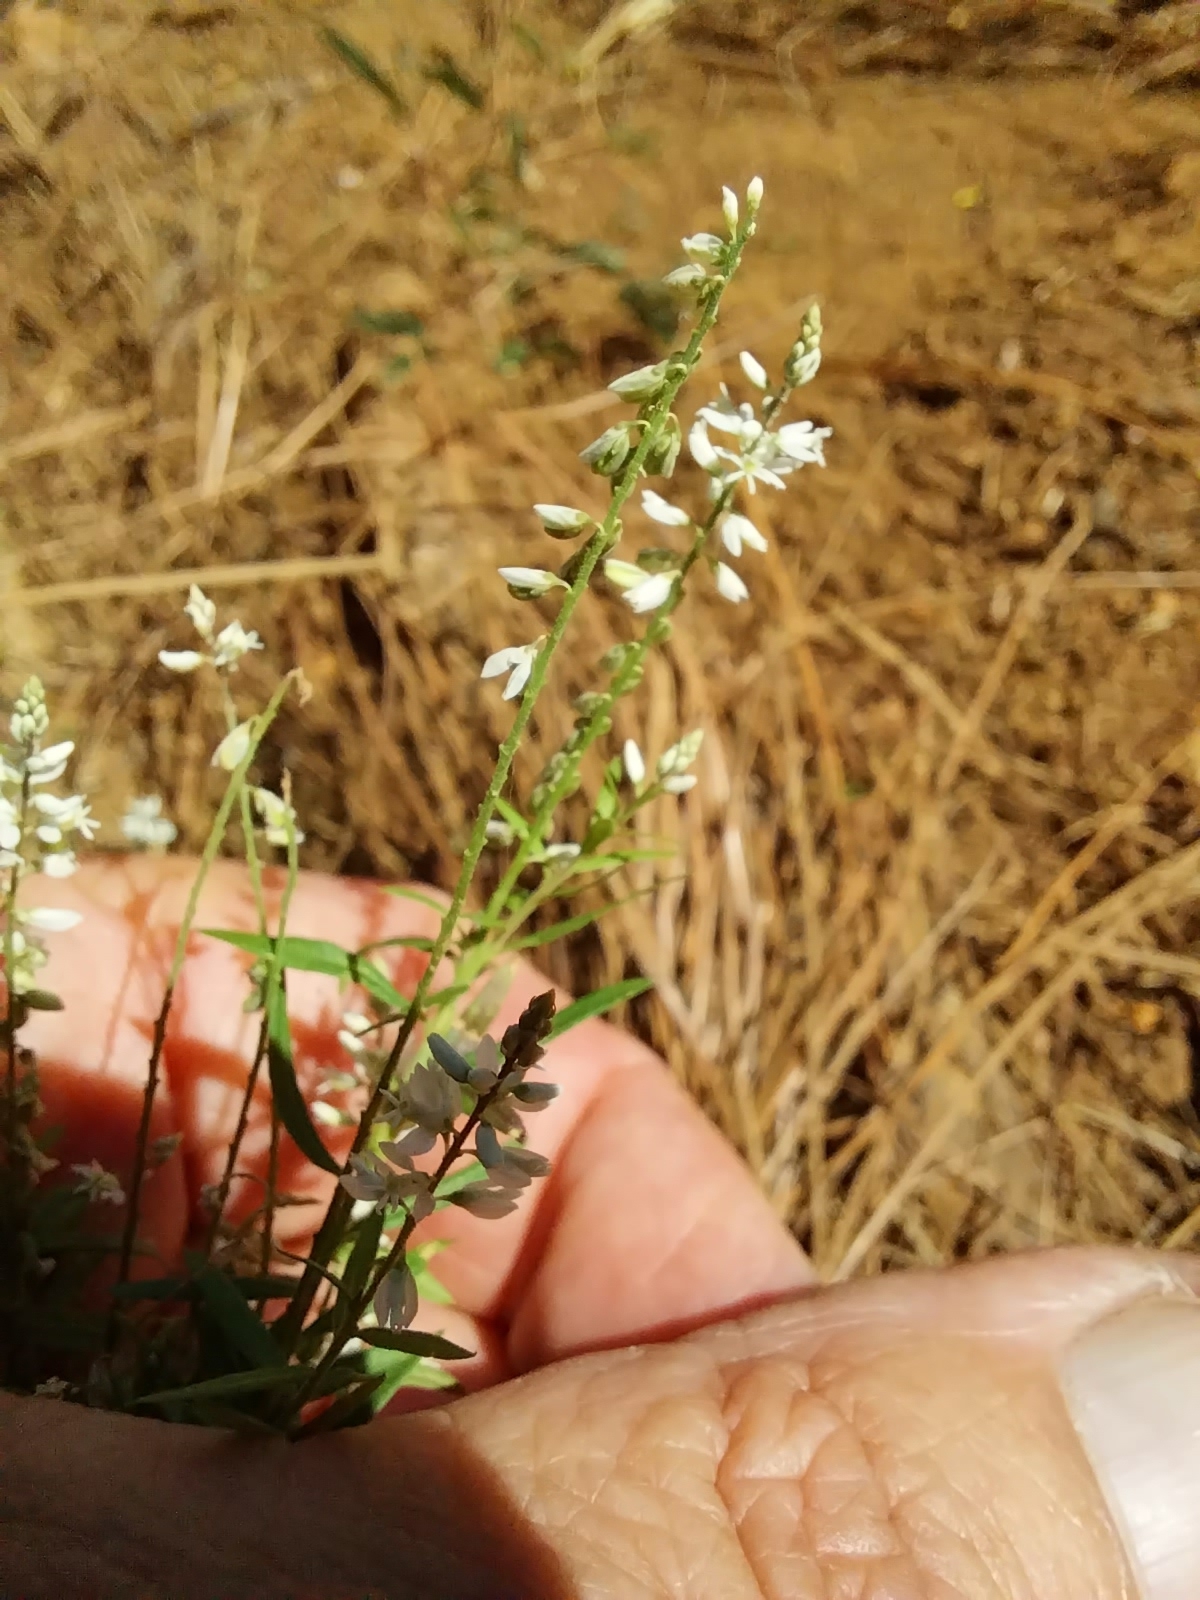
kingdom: Plantae
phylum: Tracheophyta
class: Magnoliopsida
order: Fabales
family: Polygalaceae
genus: Polygala
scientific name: Polygala paniculata
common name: Orosne
